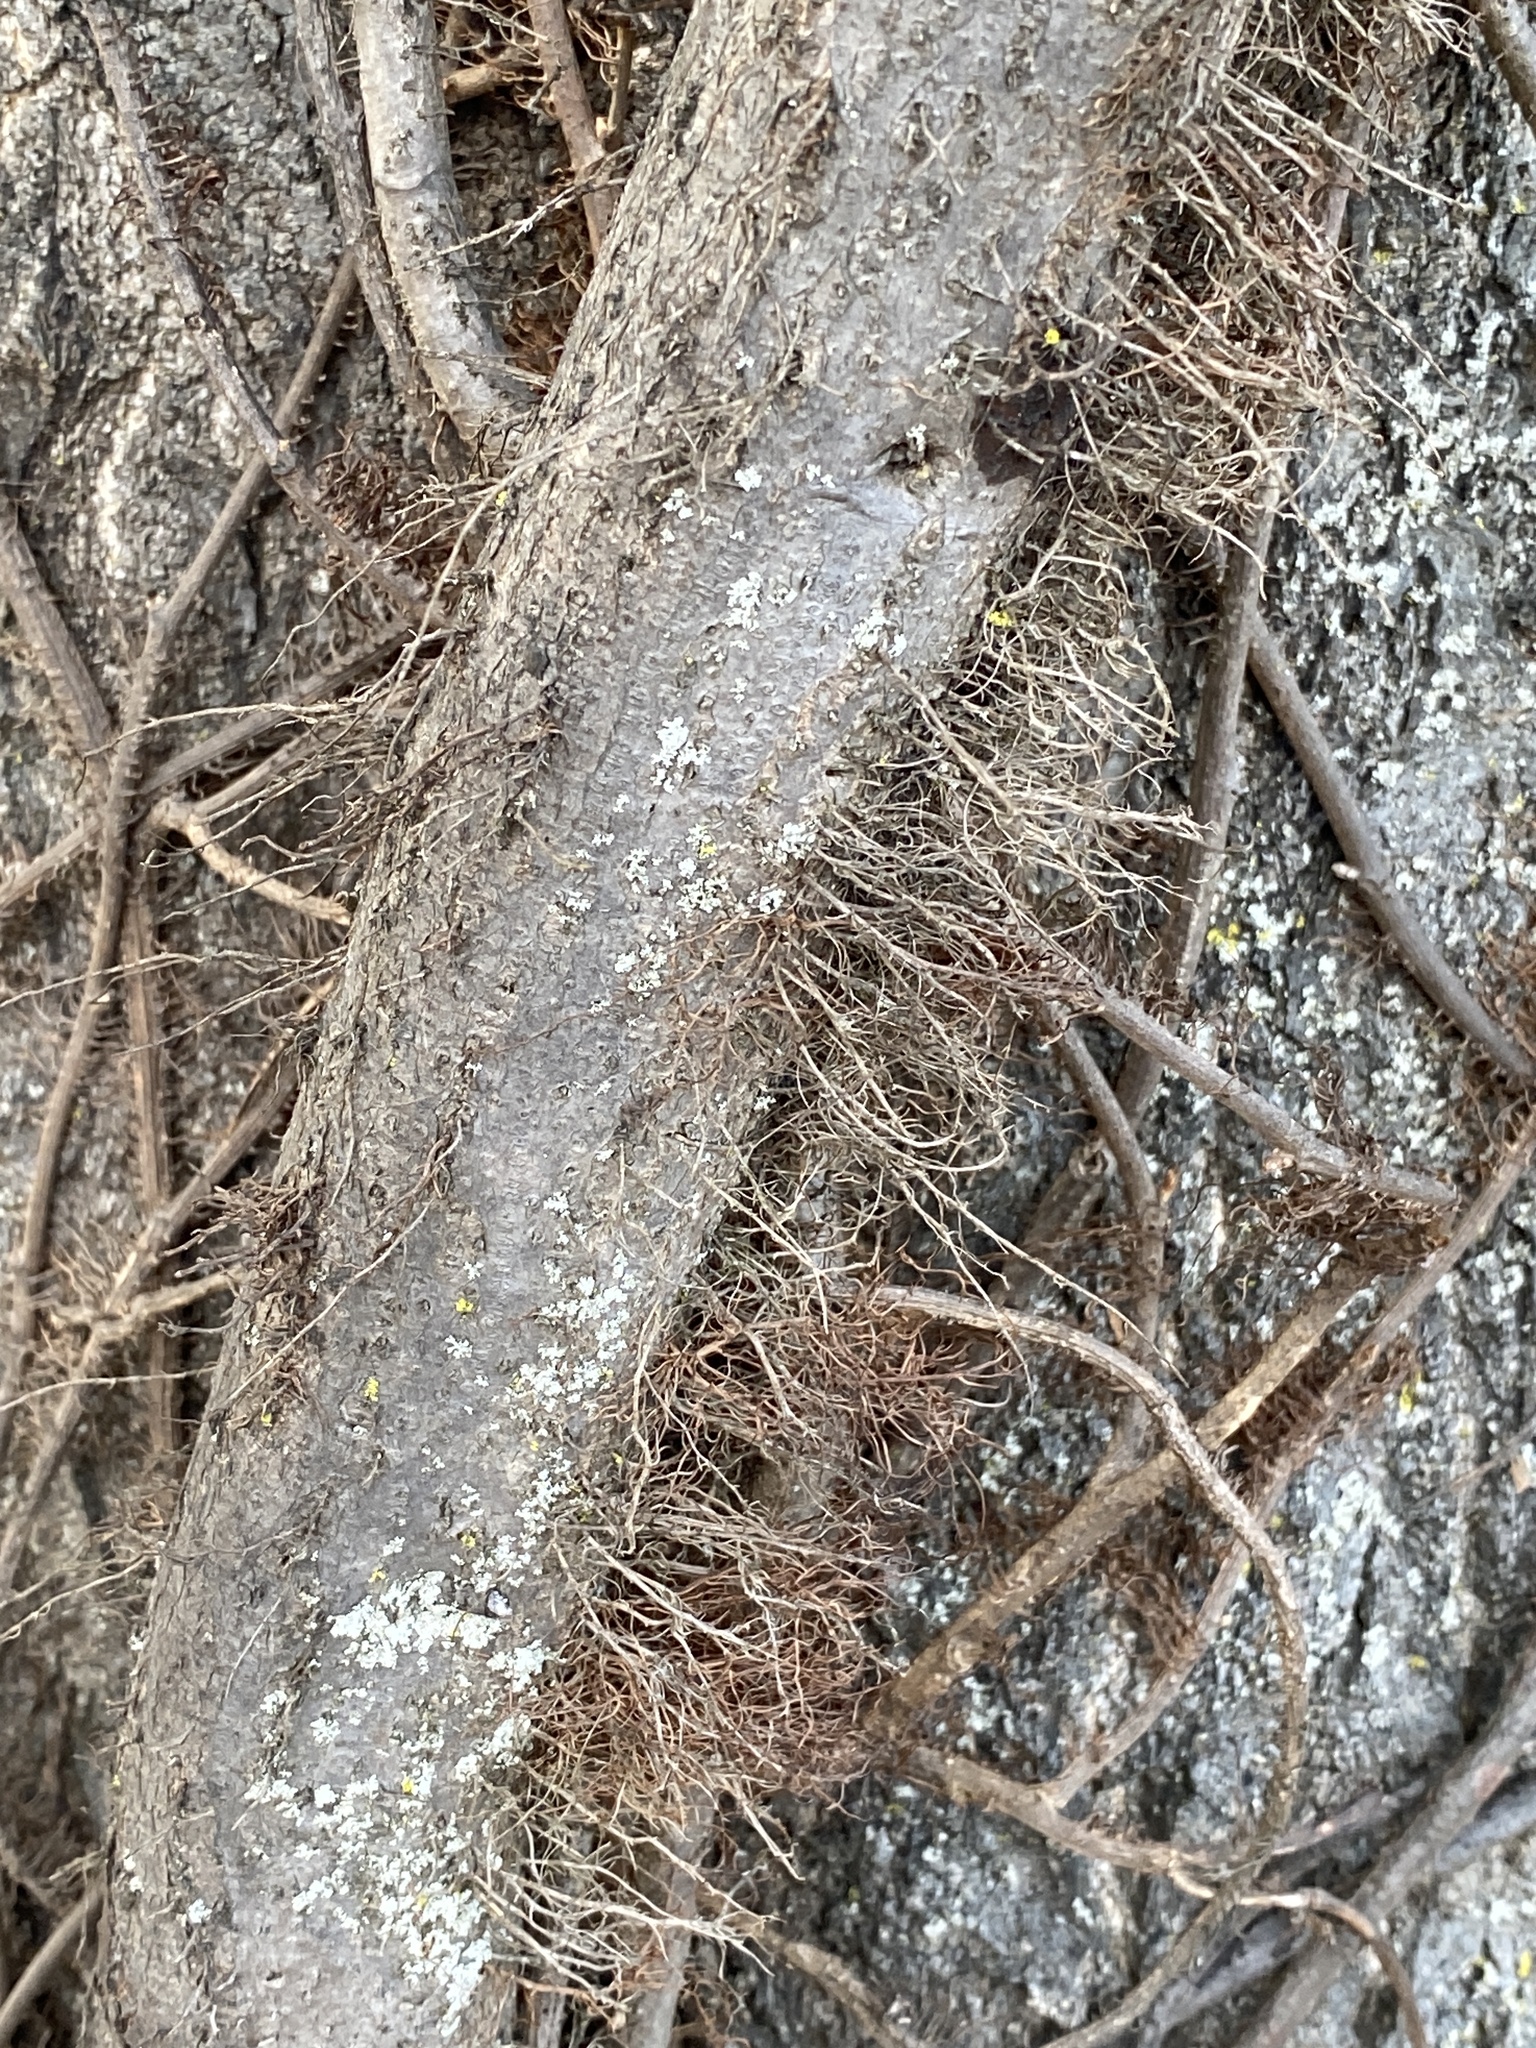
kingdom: Plantae
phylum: Tracheophyta
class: Magnoliopsida
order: Sapindales
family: Anacardiaceae
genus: Toxicodendron
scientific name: Toxicodendron radicans
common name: Poison ivy
